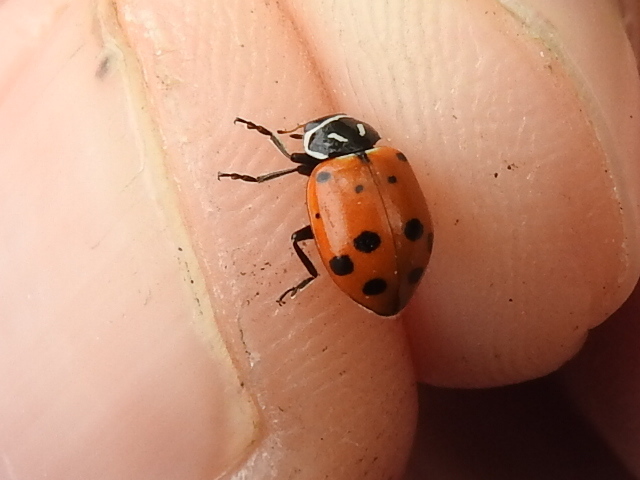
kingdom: Animalia
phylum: Arthropoda
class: Insecta
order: Coleoptera
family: Coccinellidae
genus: Hippodamia
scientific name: Hippodamia convergens
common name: Convergent lady beetle
